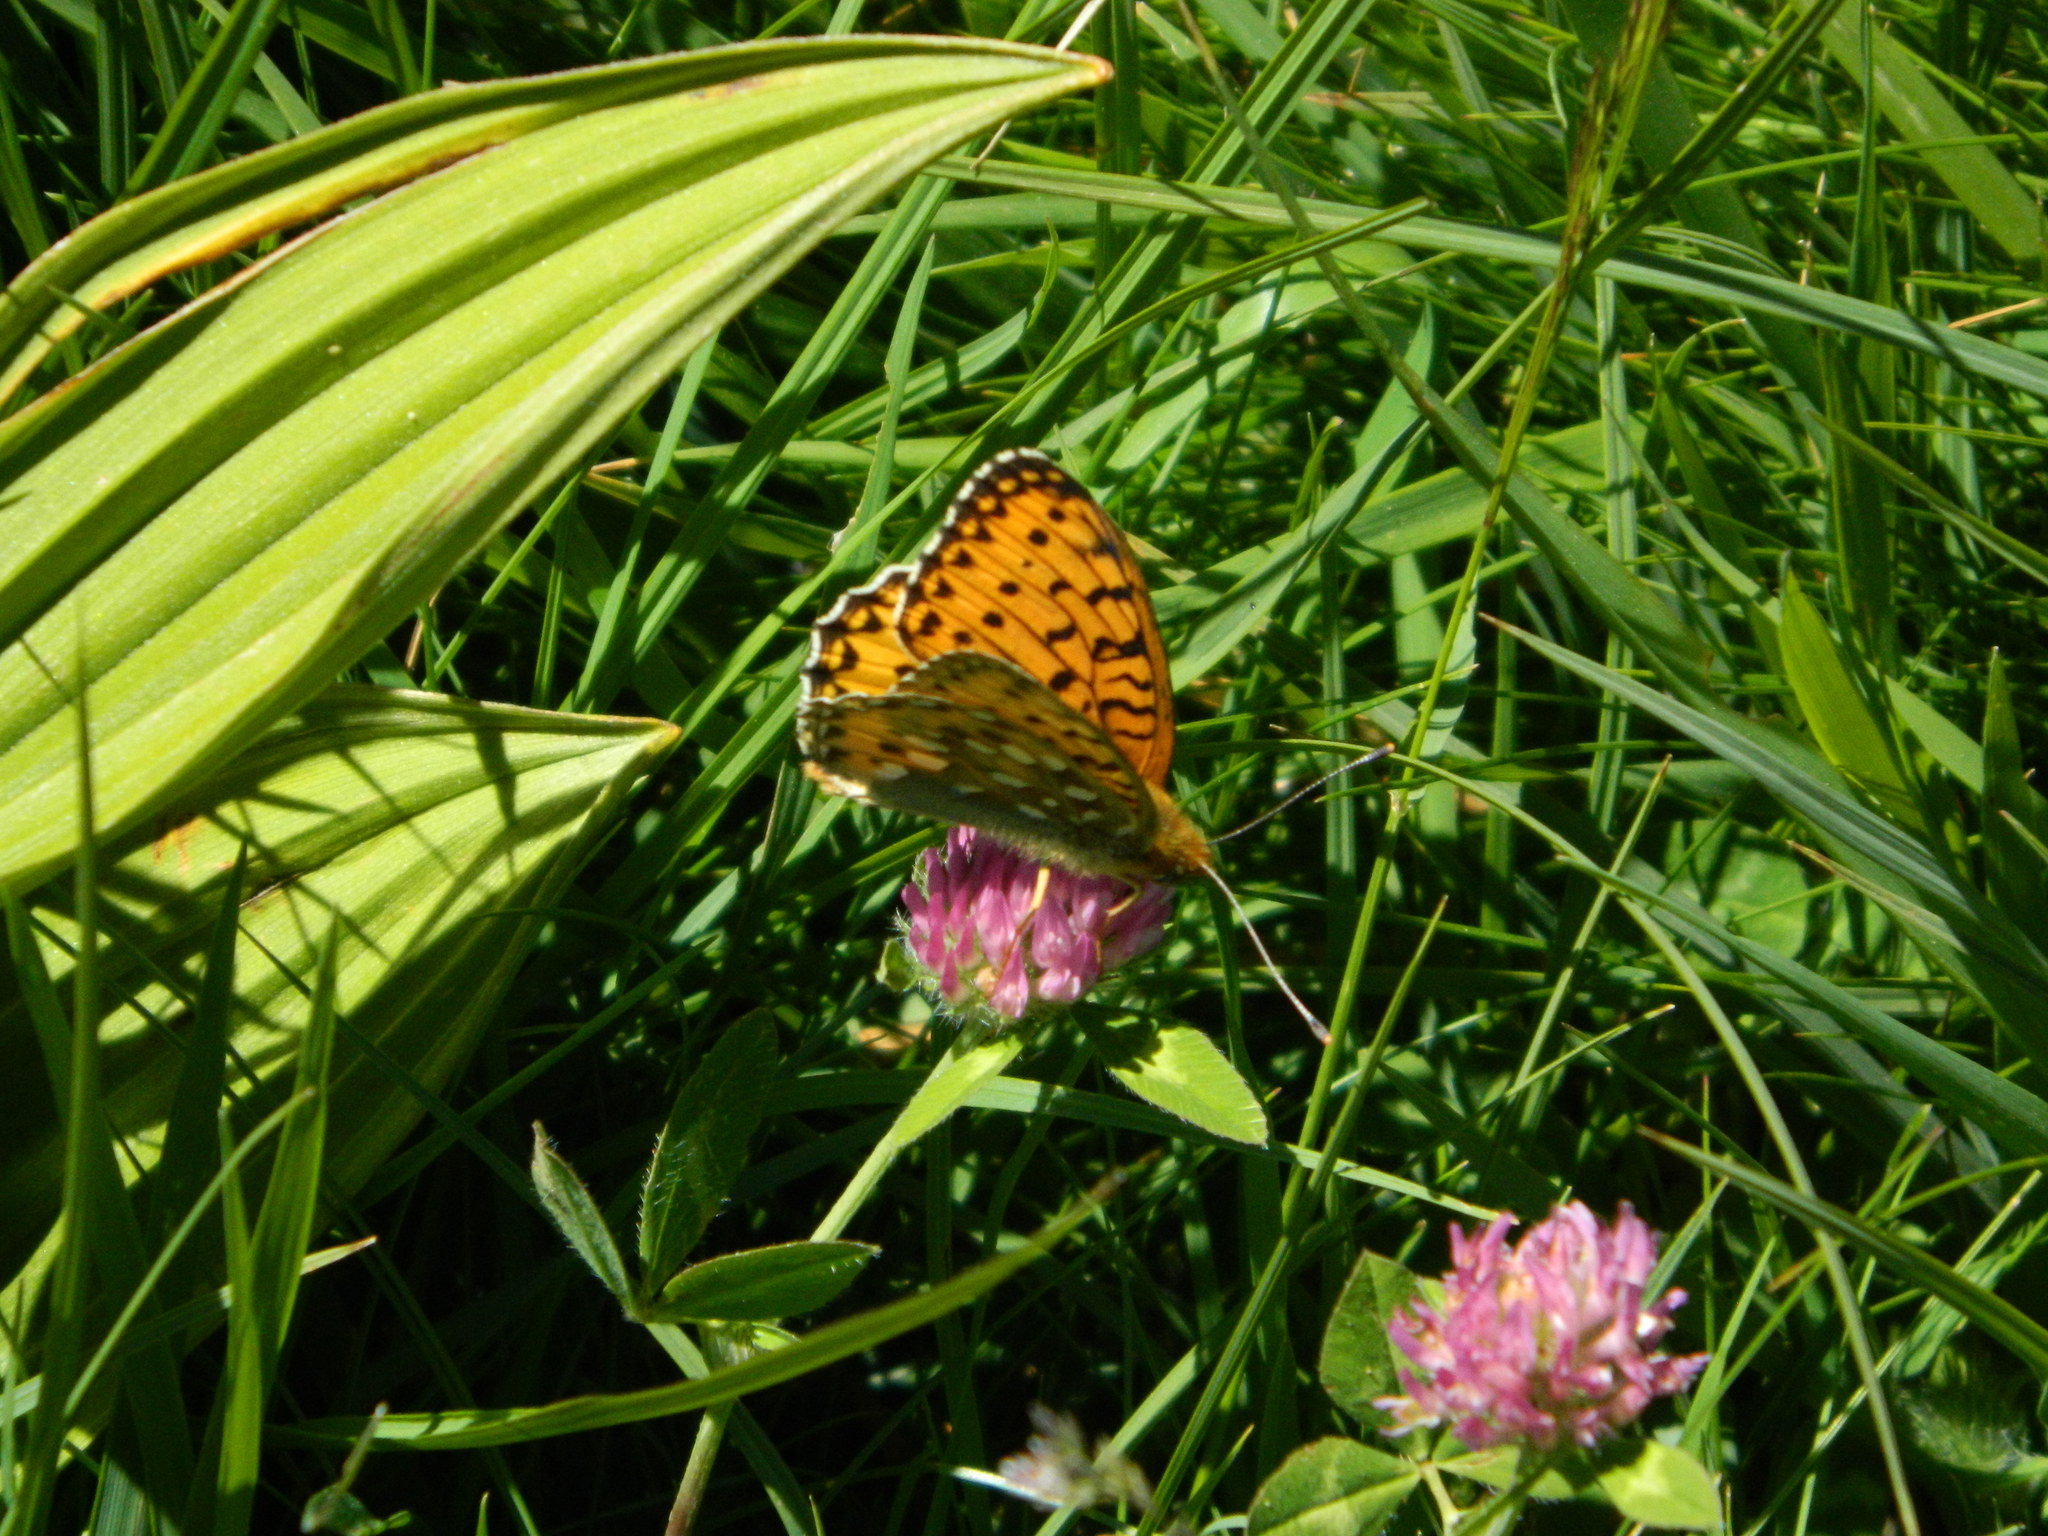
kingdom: Animalia
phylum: Arthropoda
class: Insecta
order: Lepidoptera
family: Nymphalidae
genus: Speyeria
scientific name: Speyeria aglaja
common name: Dark green fritillary
